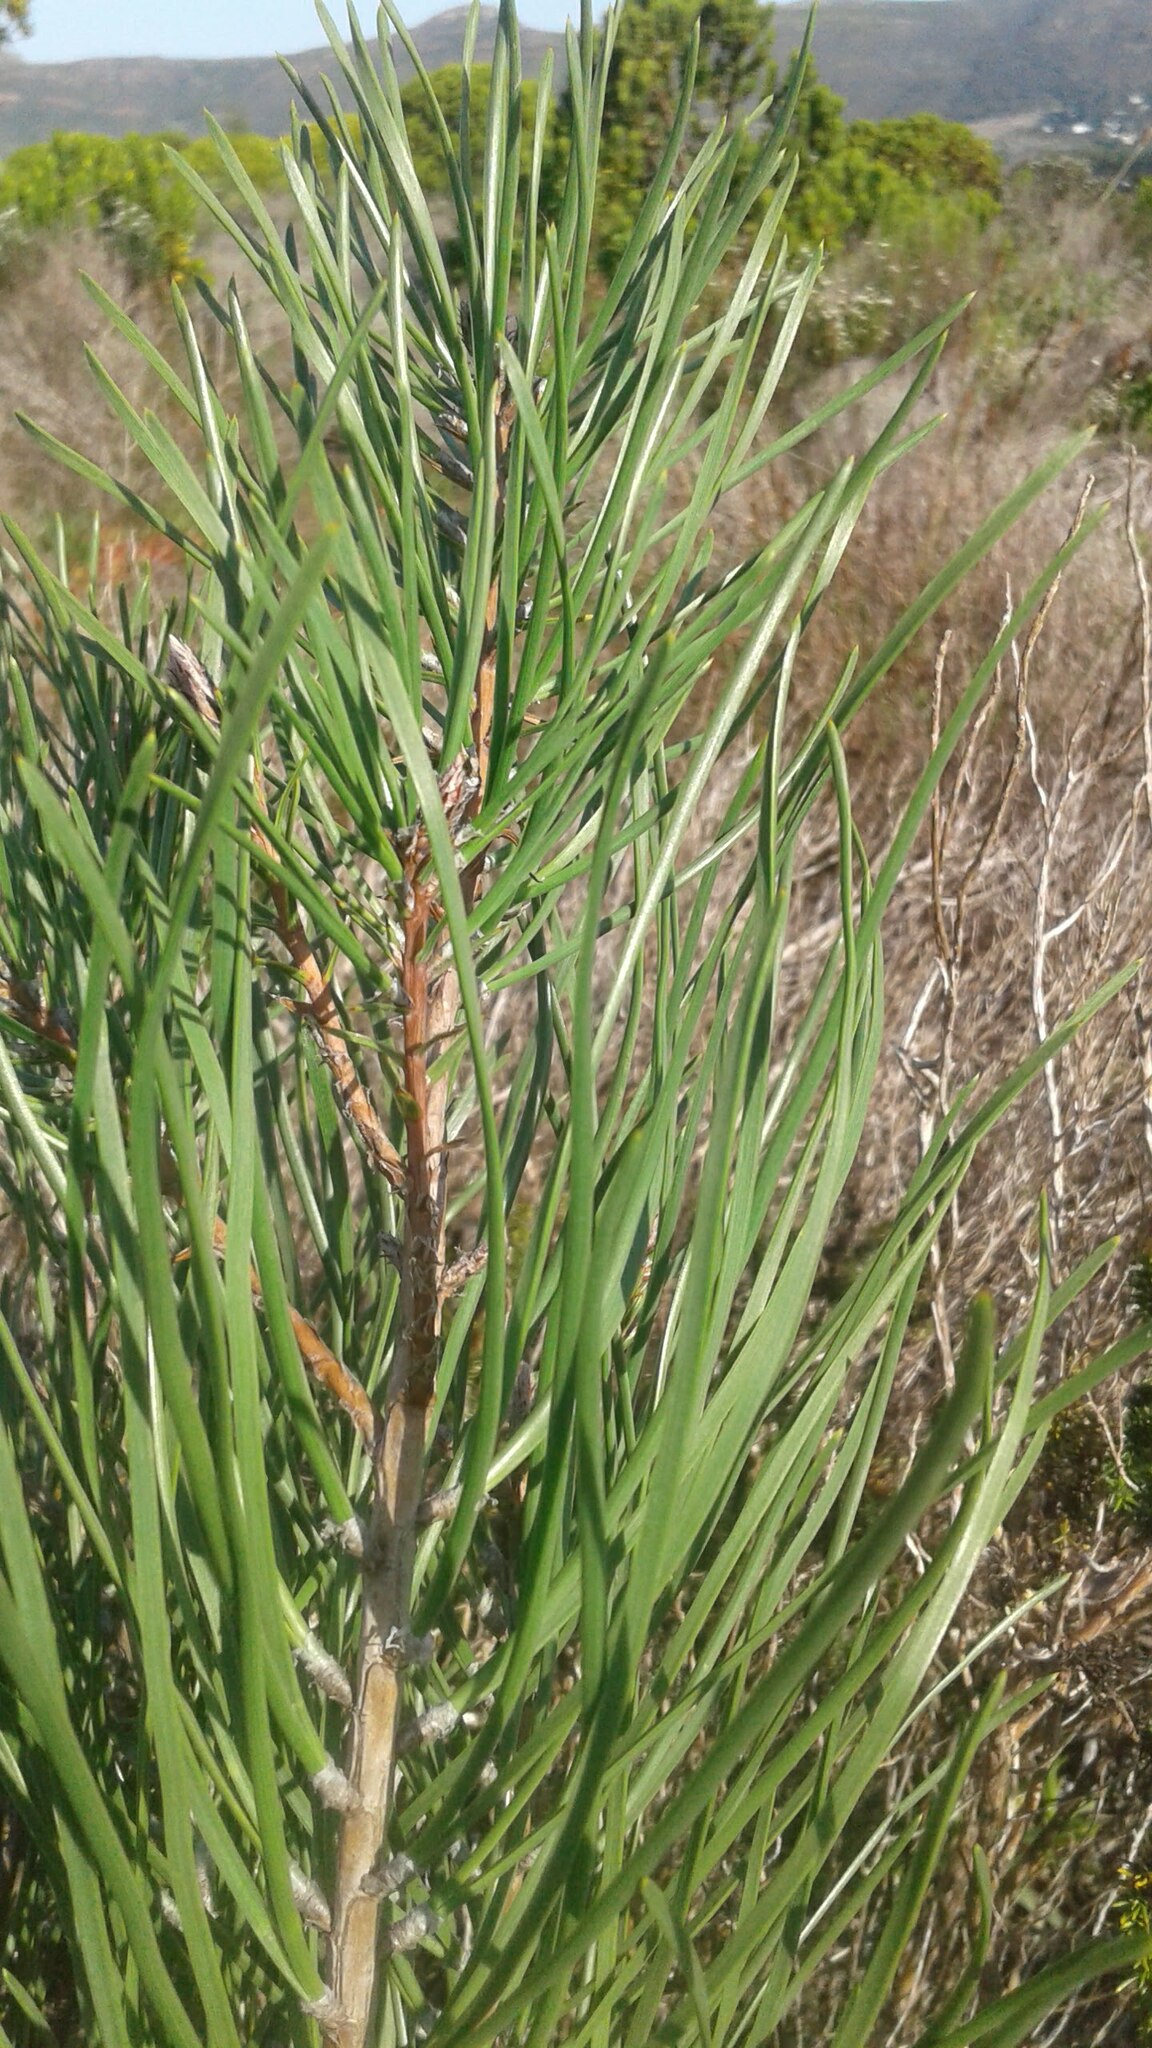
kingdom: Plantae
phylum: Tracheophyta
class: Pinopsida
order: Pinales
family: Pinaceae
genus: Pinus
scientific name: Pinus pinaster
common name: Maritime pine
